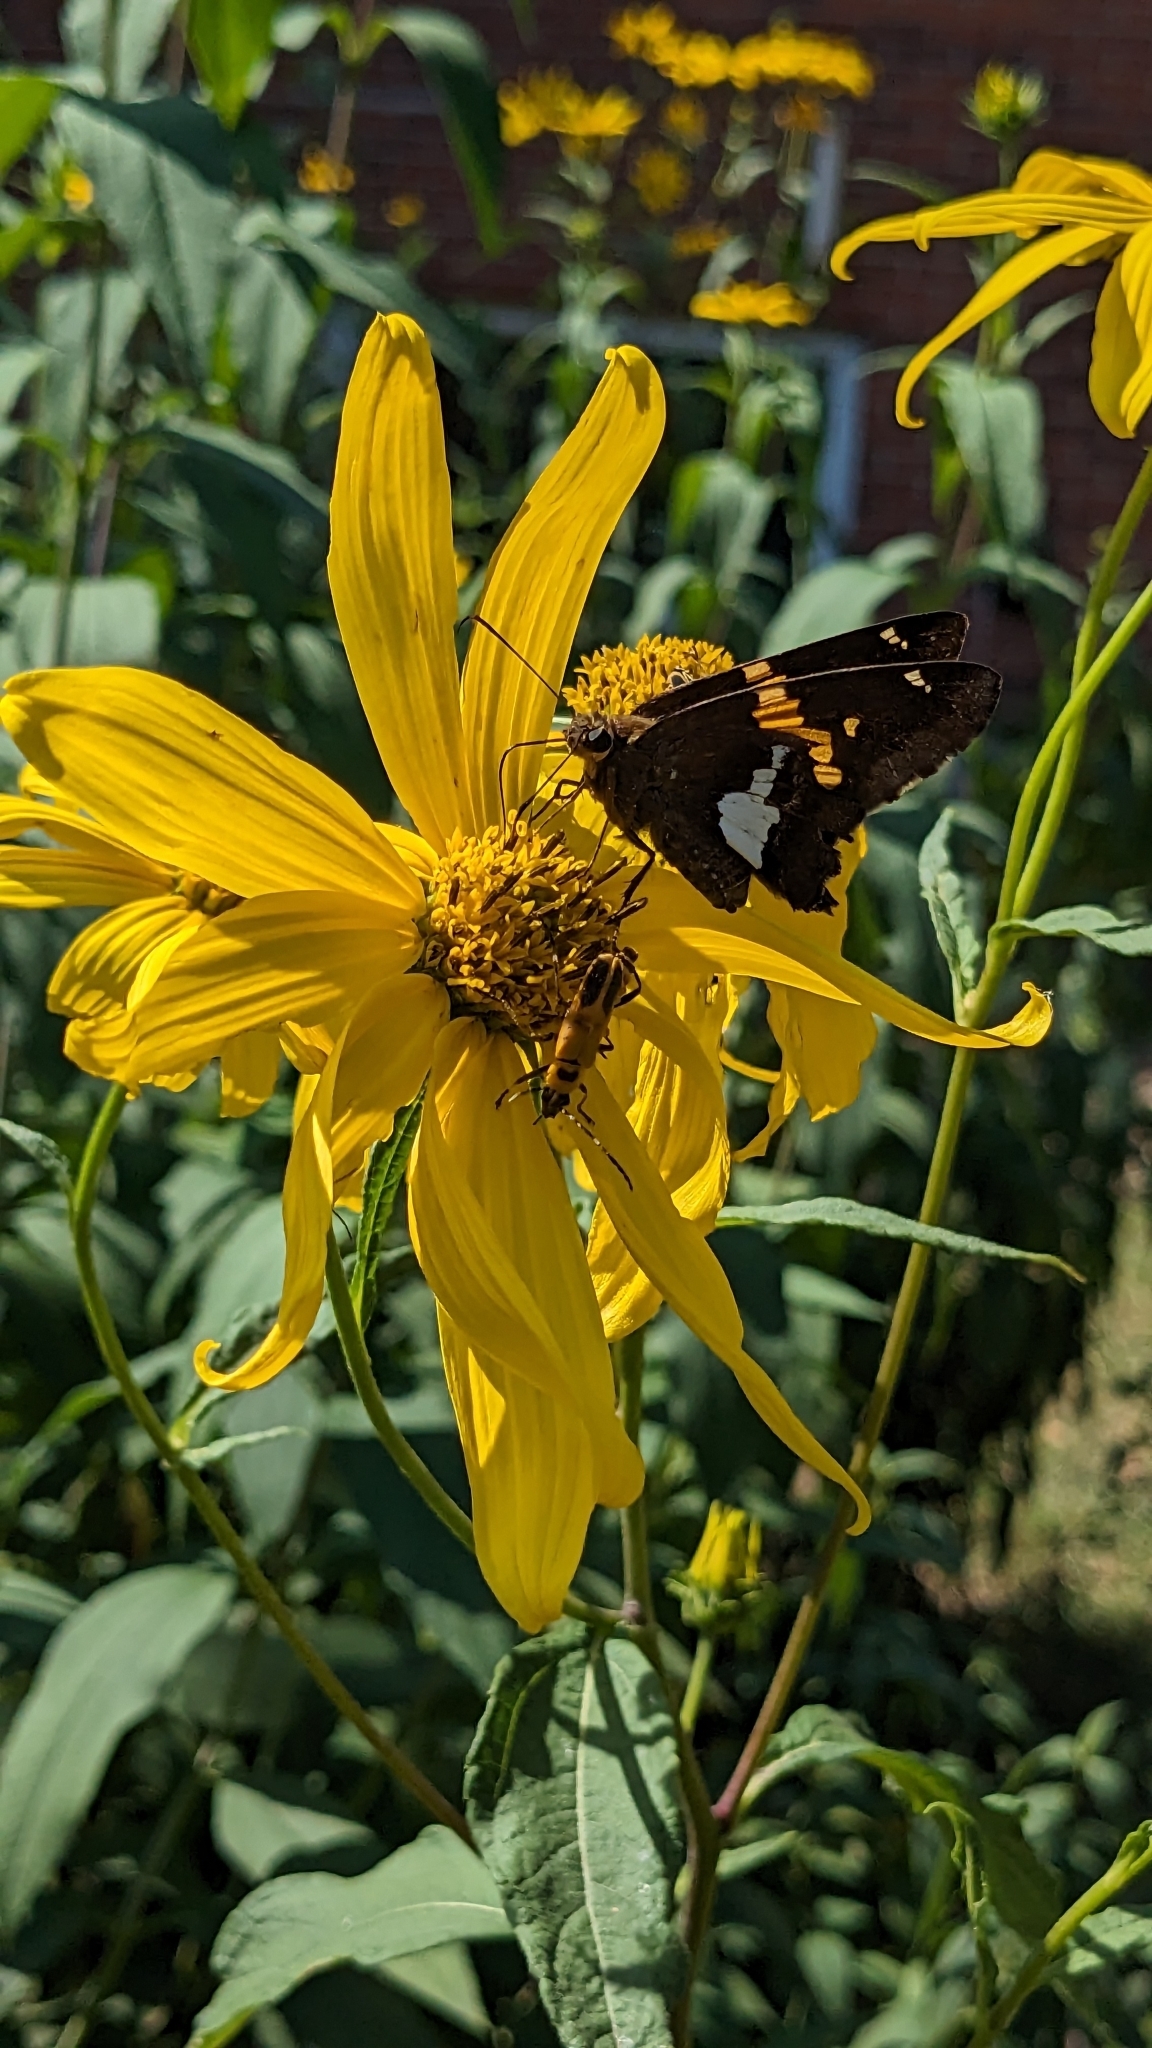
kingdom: Animalia
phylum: Arthropoda
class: Insecta
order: Lepidoptera
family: Hesperiidae
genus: Epargyreus
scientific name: Epargyreus clarus
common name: Silver-spotted skipper
